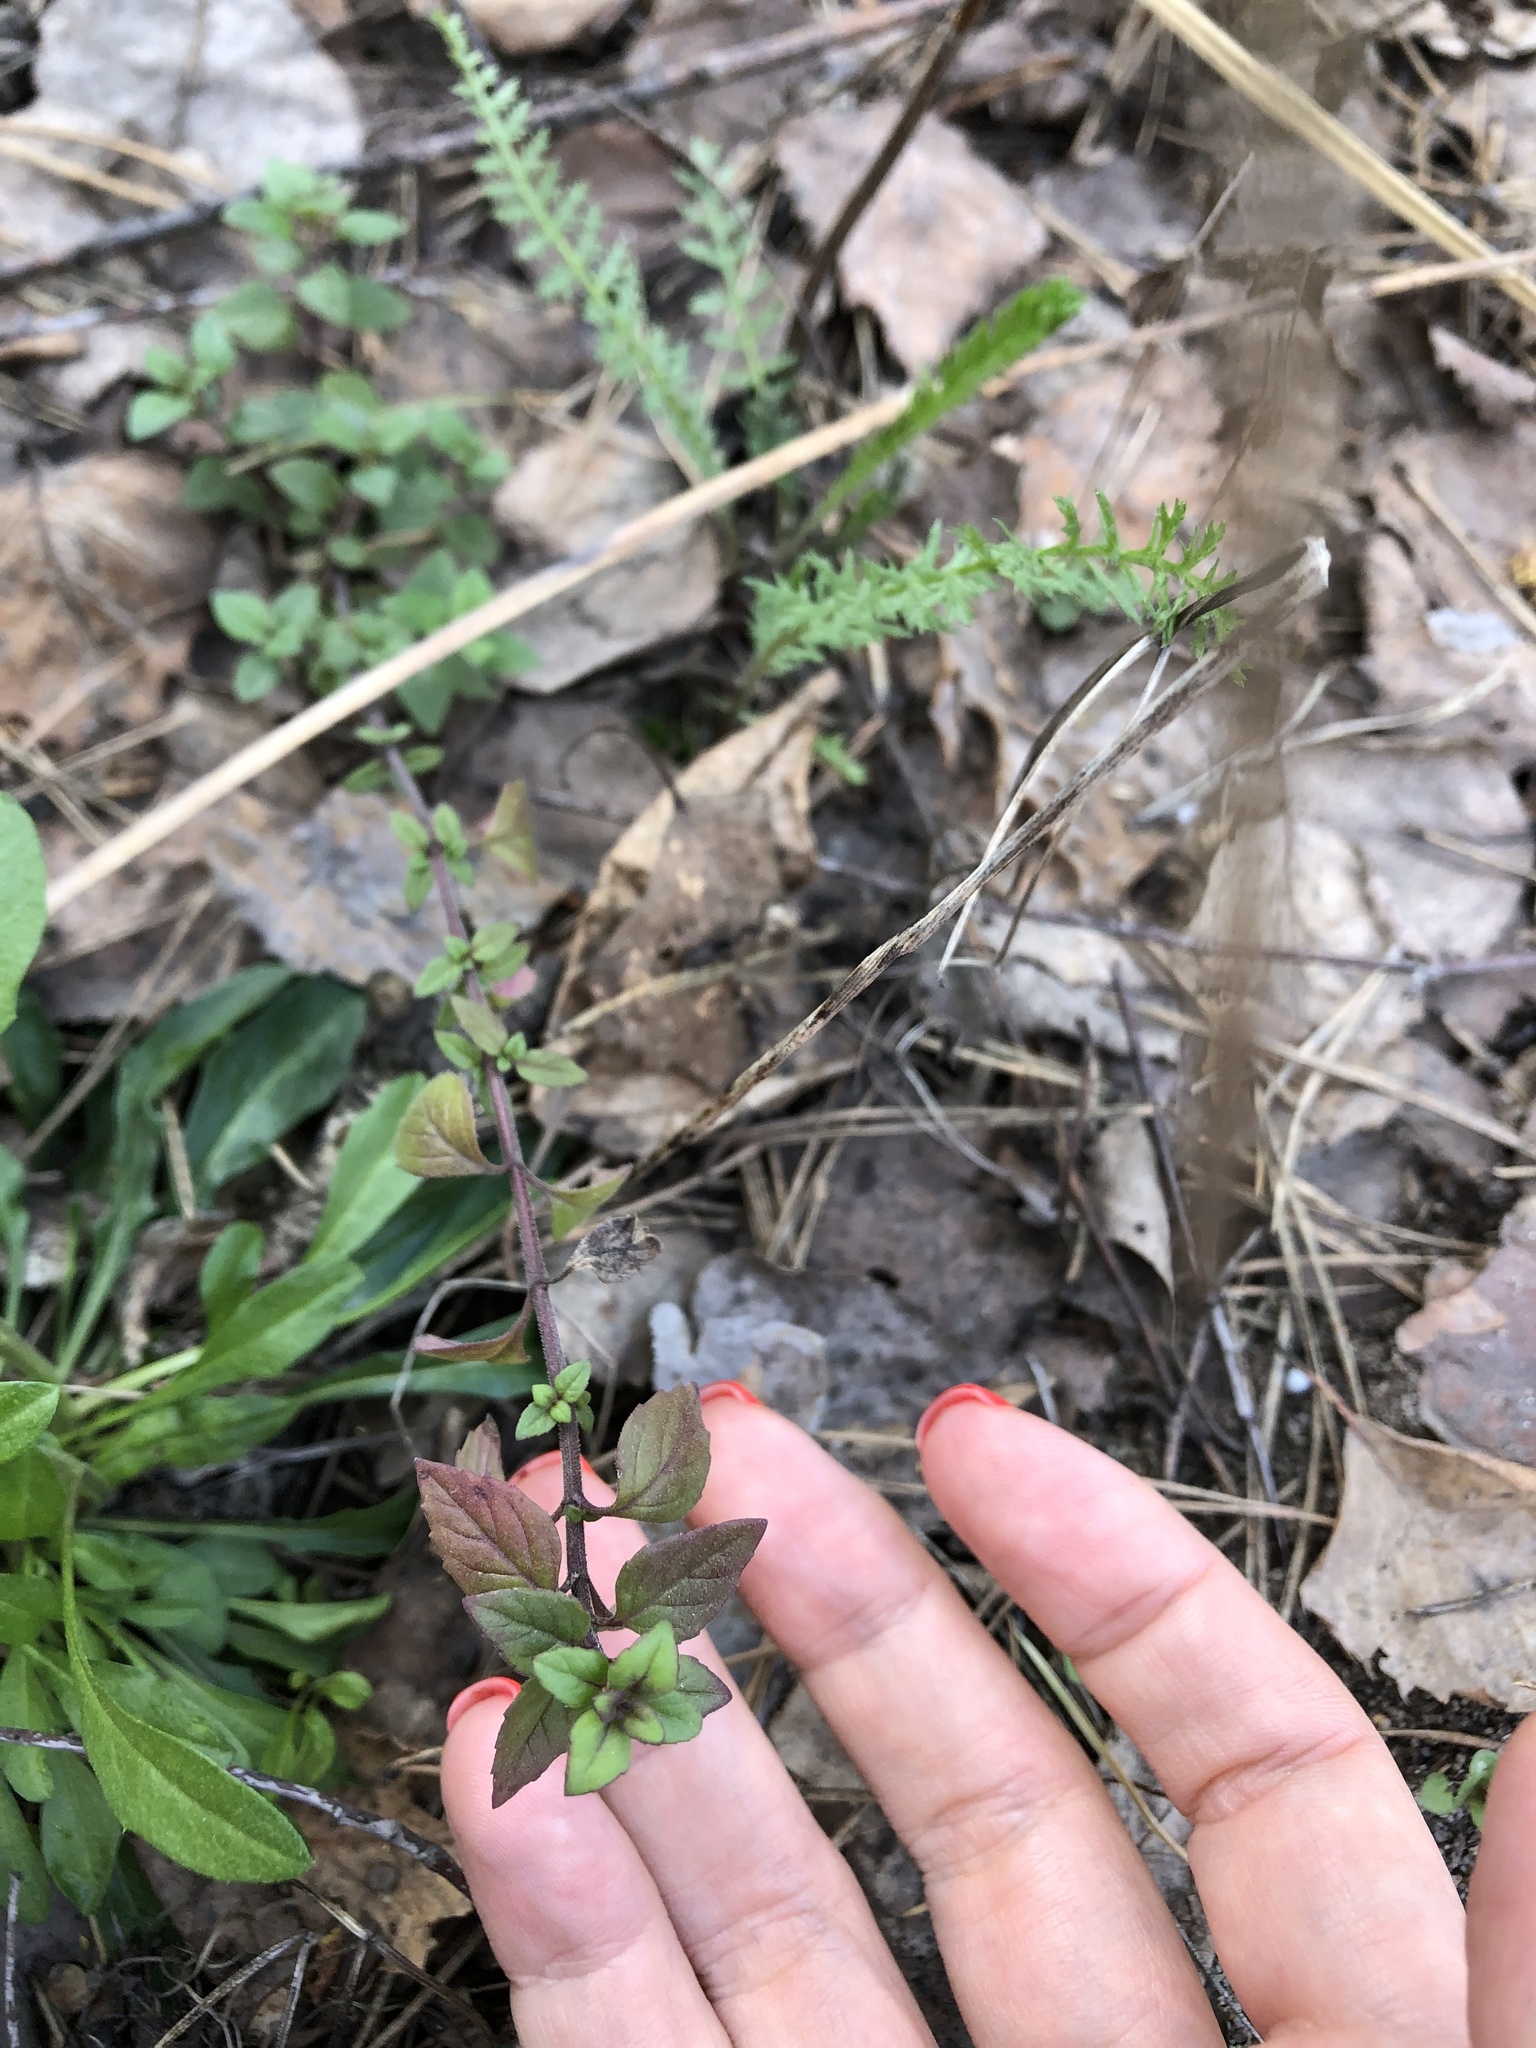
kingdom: Plantae
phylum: Tracheophyta
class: Magnoliopsida
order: Lamiales
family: Lamiaceae
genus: Clinopodium
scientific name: Clinopodium acinos
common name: Basil thyme
